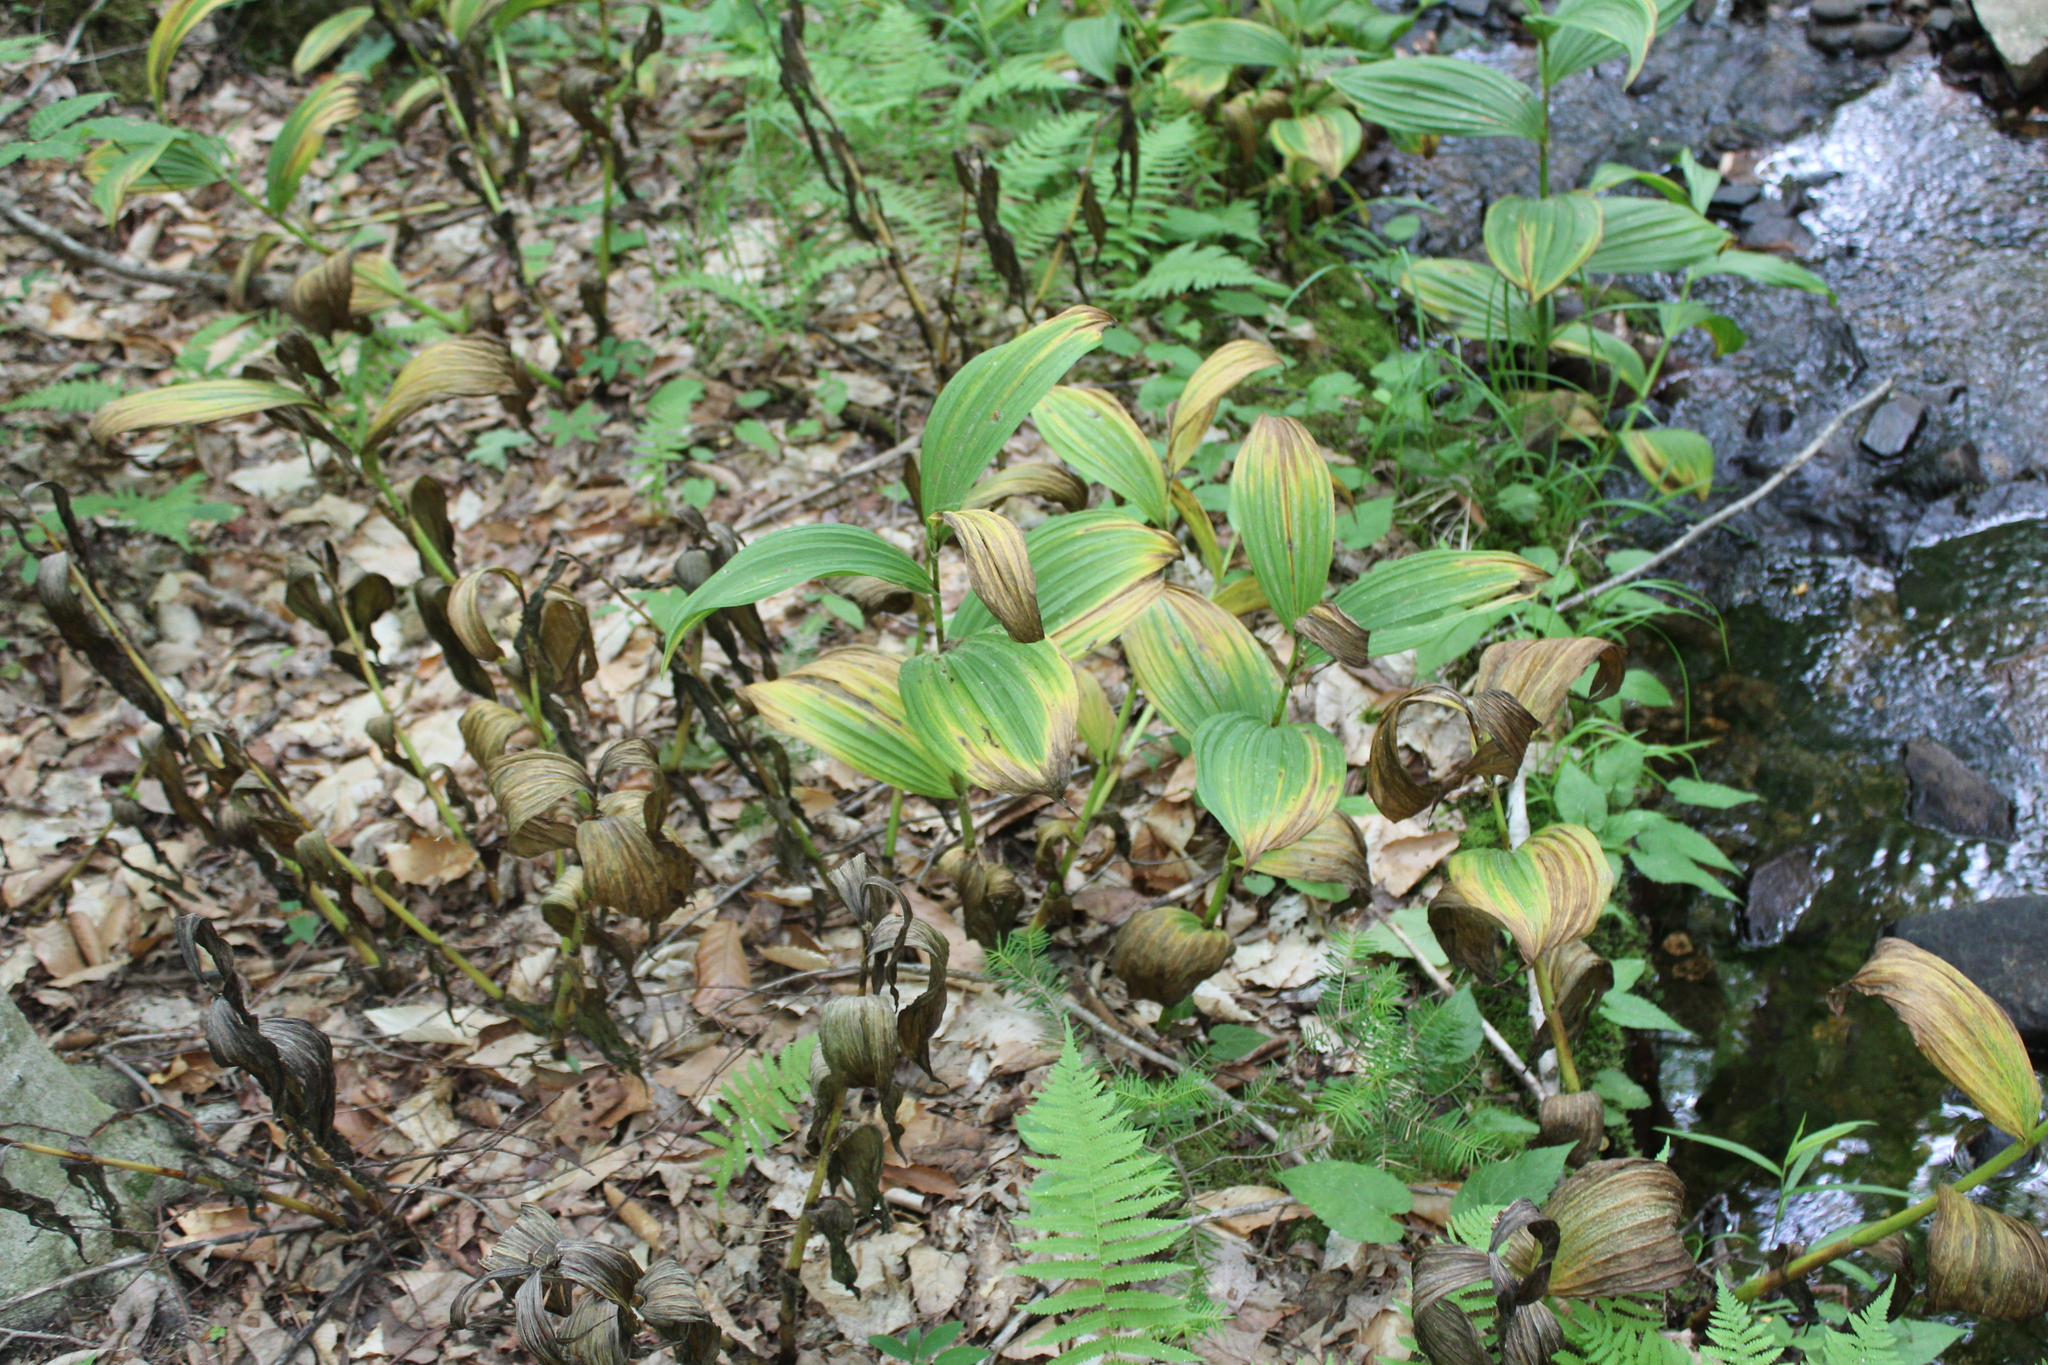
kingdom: Plantae
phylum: Tracheophyta
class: Liliopsida
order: Liliales
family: Melanthiaceae
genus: Veratrum
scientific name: Veratrum viride
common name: American false hellebore
